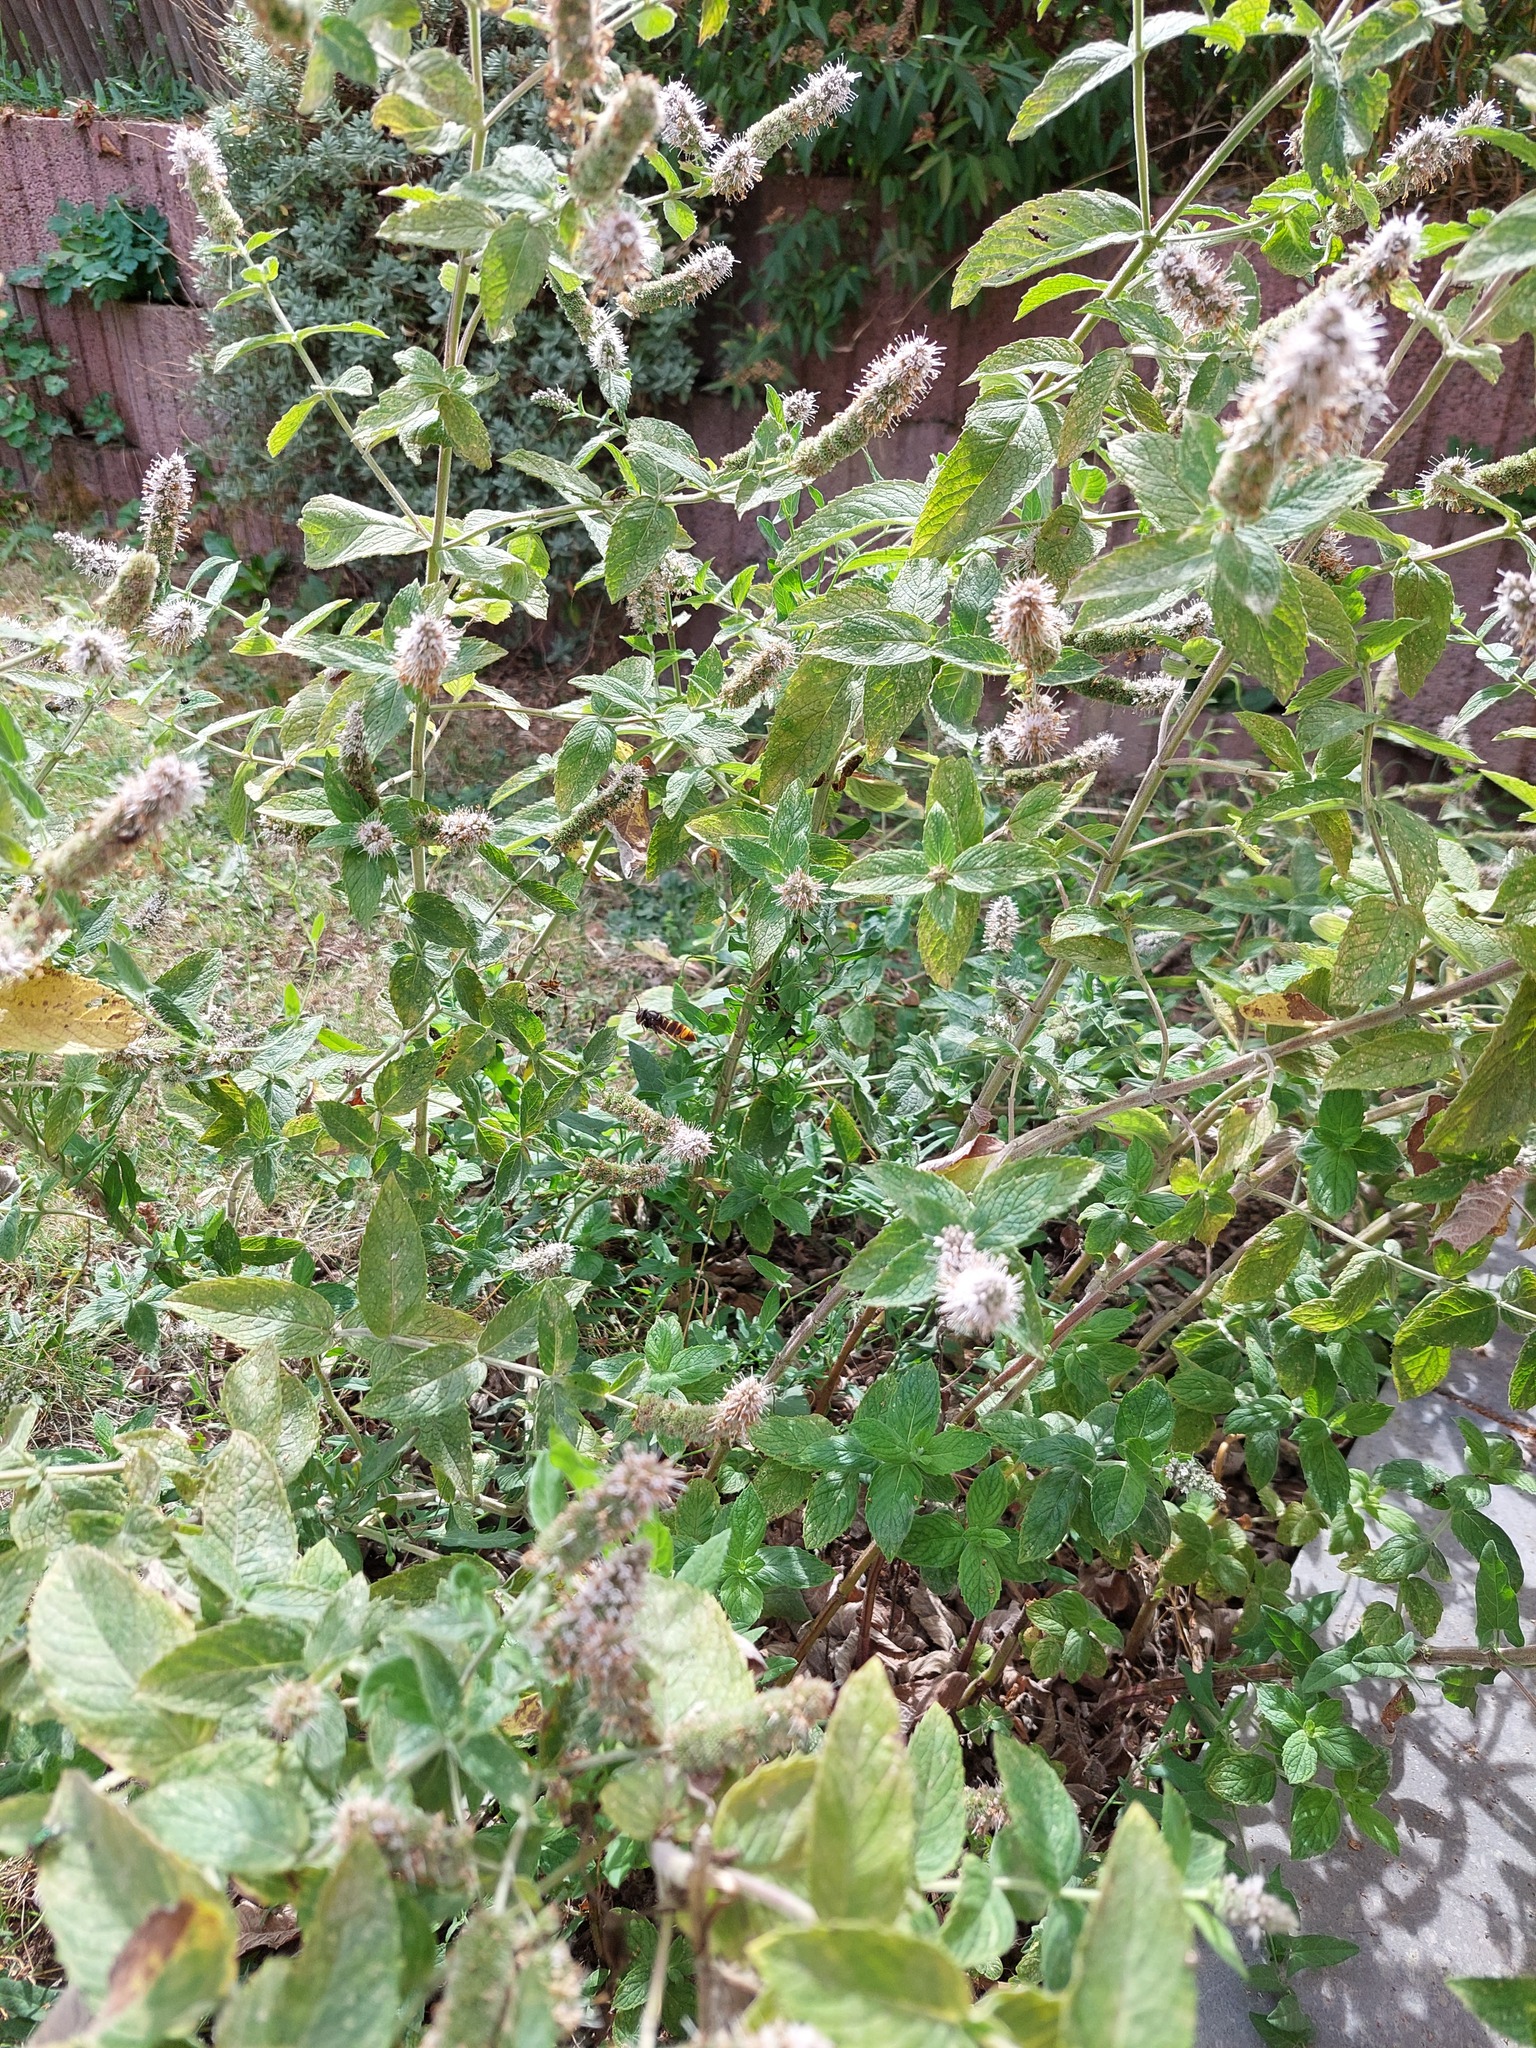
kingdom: Animalia
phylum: Arthropoda
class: Insecta
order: Hymenoptera
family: Vespidae
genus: Vespa
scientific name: Vespa velutina
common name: Asian hornet
